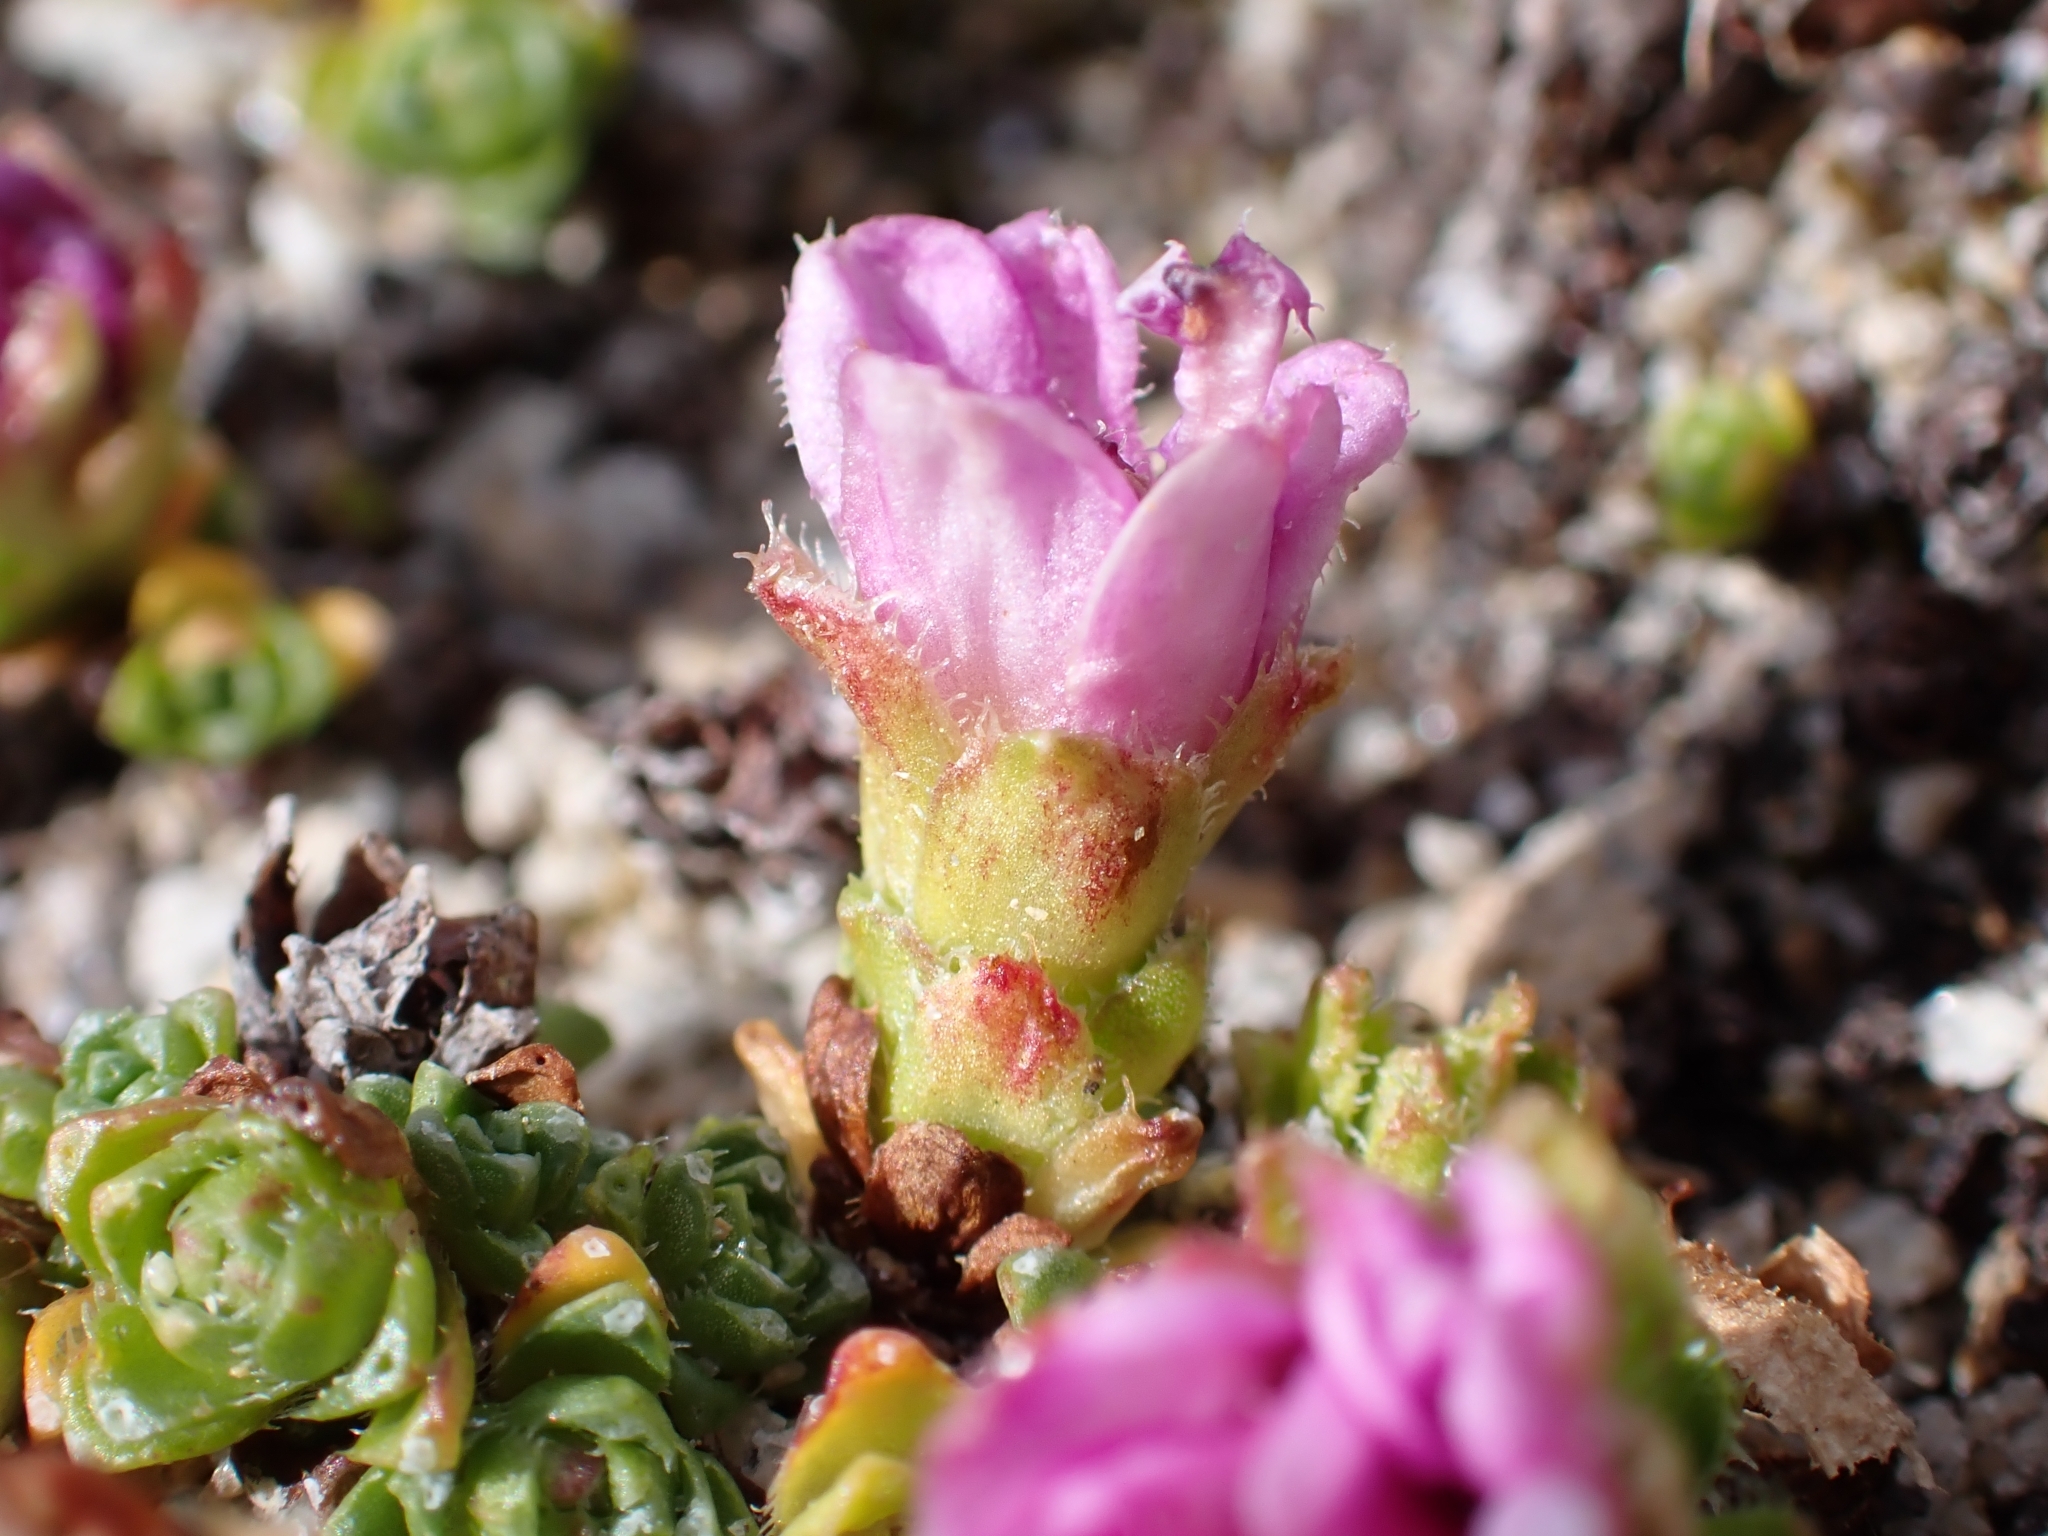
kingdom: Plantae
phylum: Tracheophyta
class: Magnoliopsida
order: Saxifragales
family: Saxifragaceae
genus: Saxifraga
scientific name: Saxifraga oppositifolia
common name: Purple saxifrage
